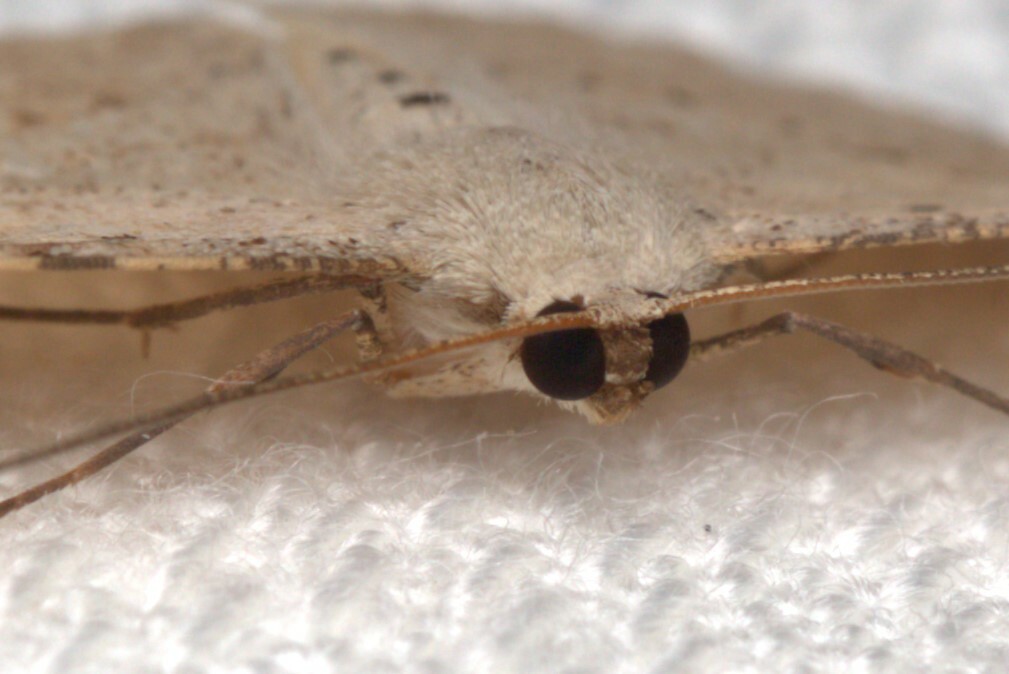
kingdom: Animalia
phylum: Arthropoda
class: Insecta
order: Lepidoptera
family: Geometridae
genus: Luxiaria
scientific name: Luxiaria ochrophara
